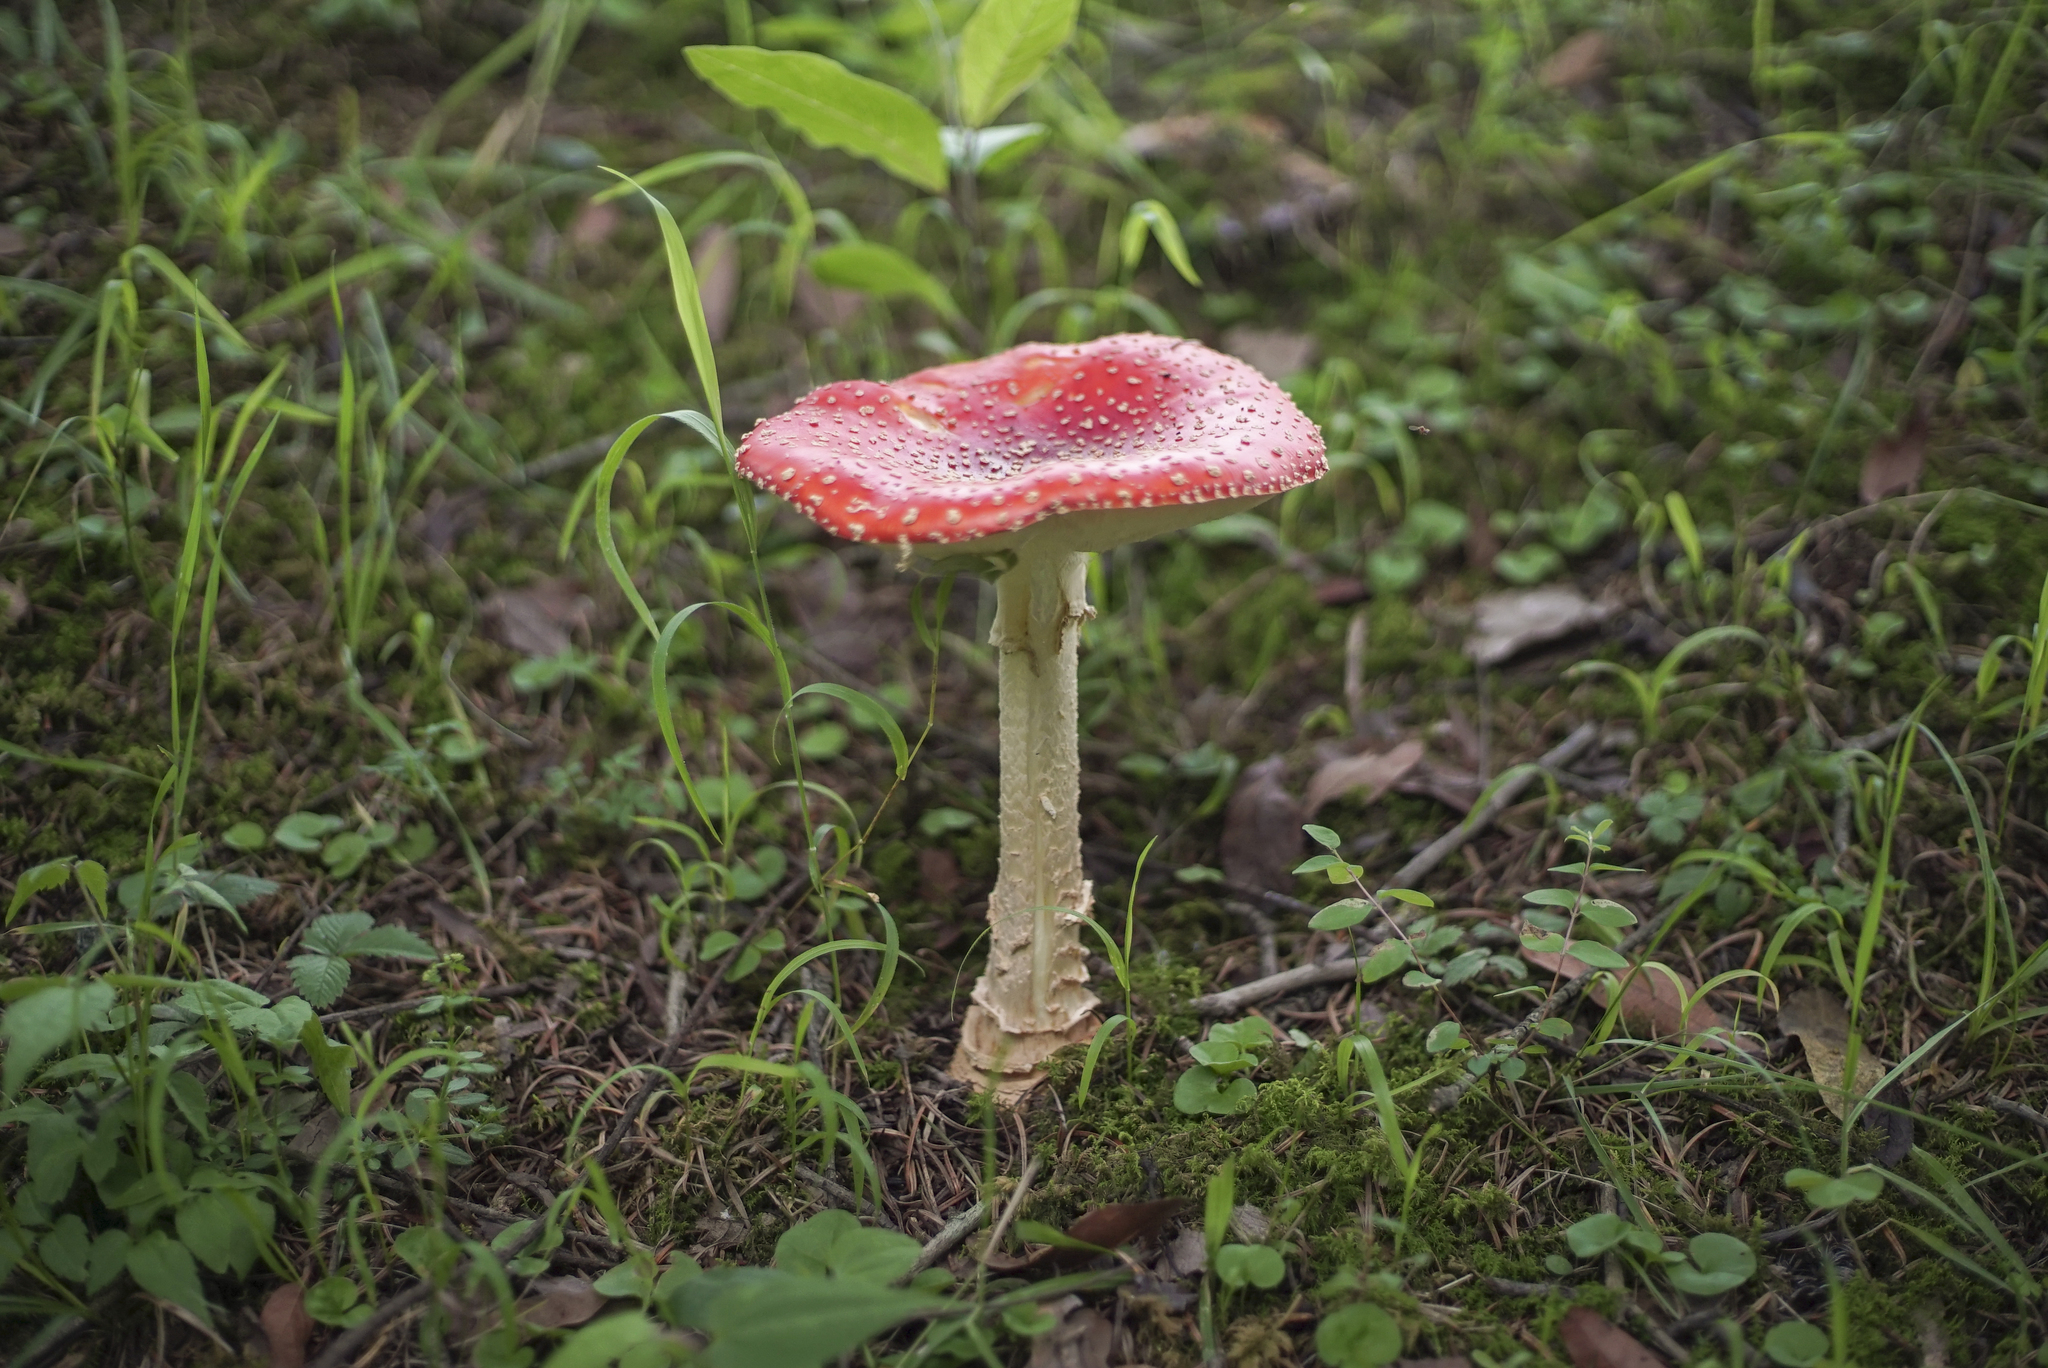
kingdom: Fungi
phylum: Basidiomycota
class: Agaricomycetes
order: Agaricales
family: Amanitaceae
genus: Amanita
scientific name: Amanita muscaria
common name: Fly agaric
